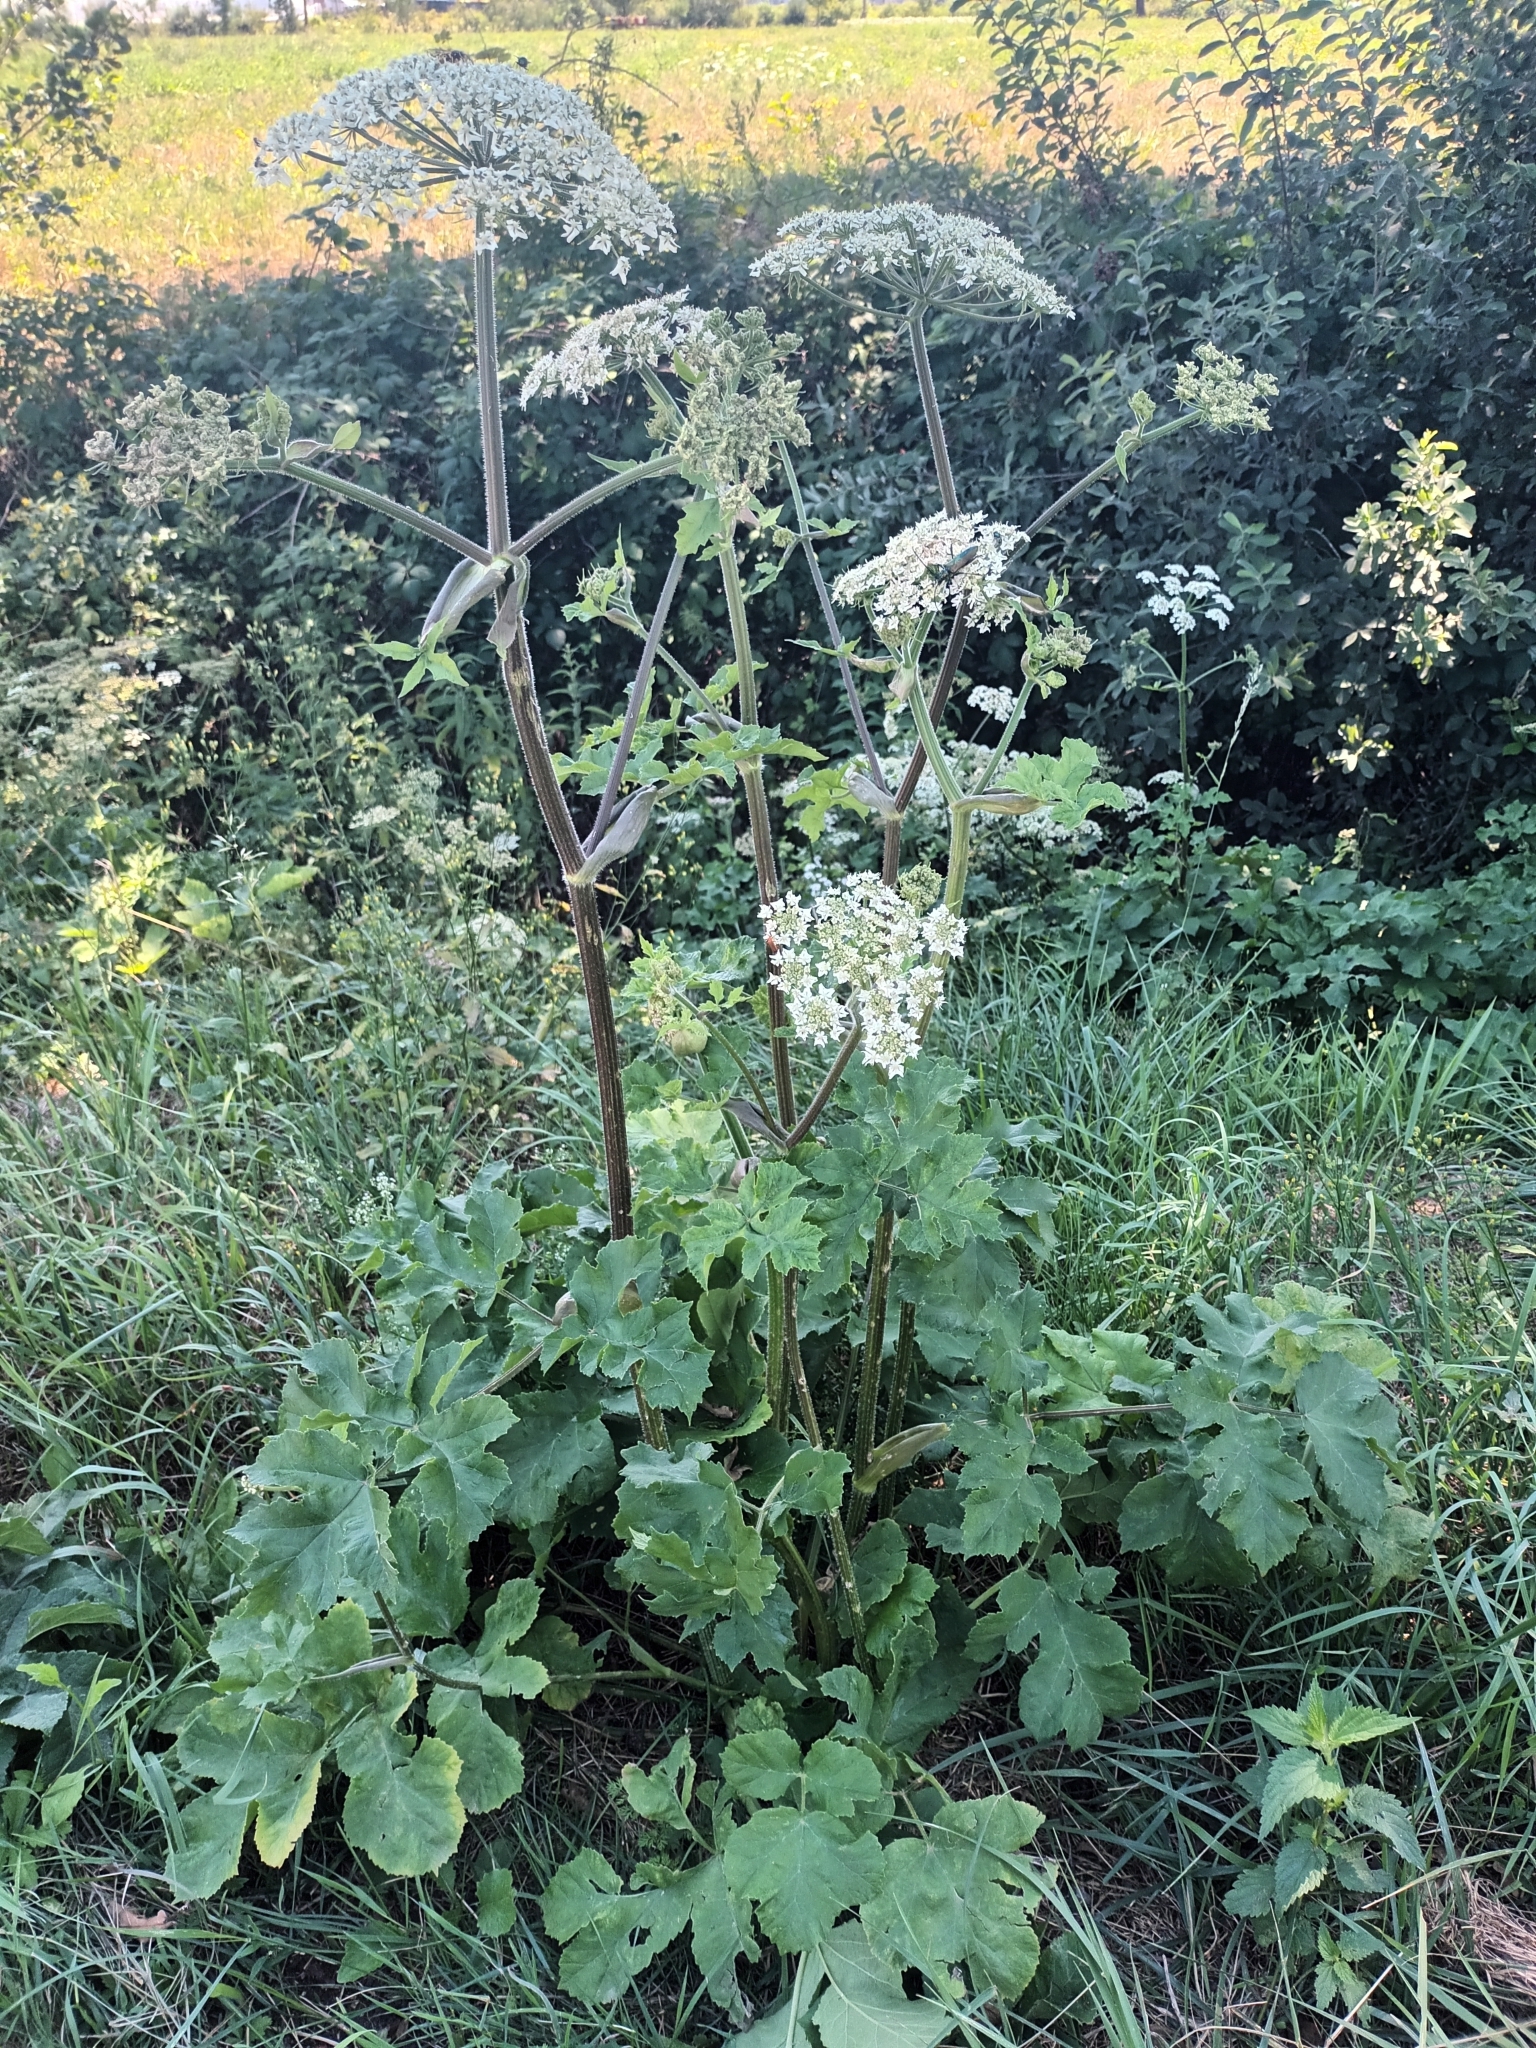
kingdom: Plantae
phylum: Tracheophyta
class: Magnoliopsida
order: Apiales
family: Apiaceae
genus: Heracleum
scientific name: Heracleum sphondylium
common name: Hogweed
